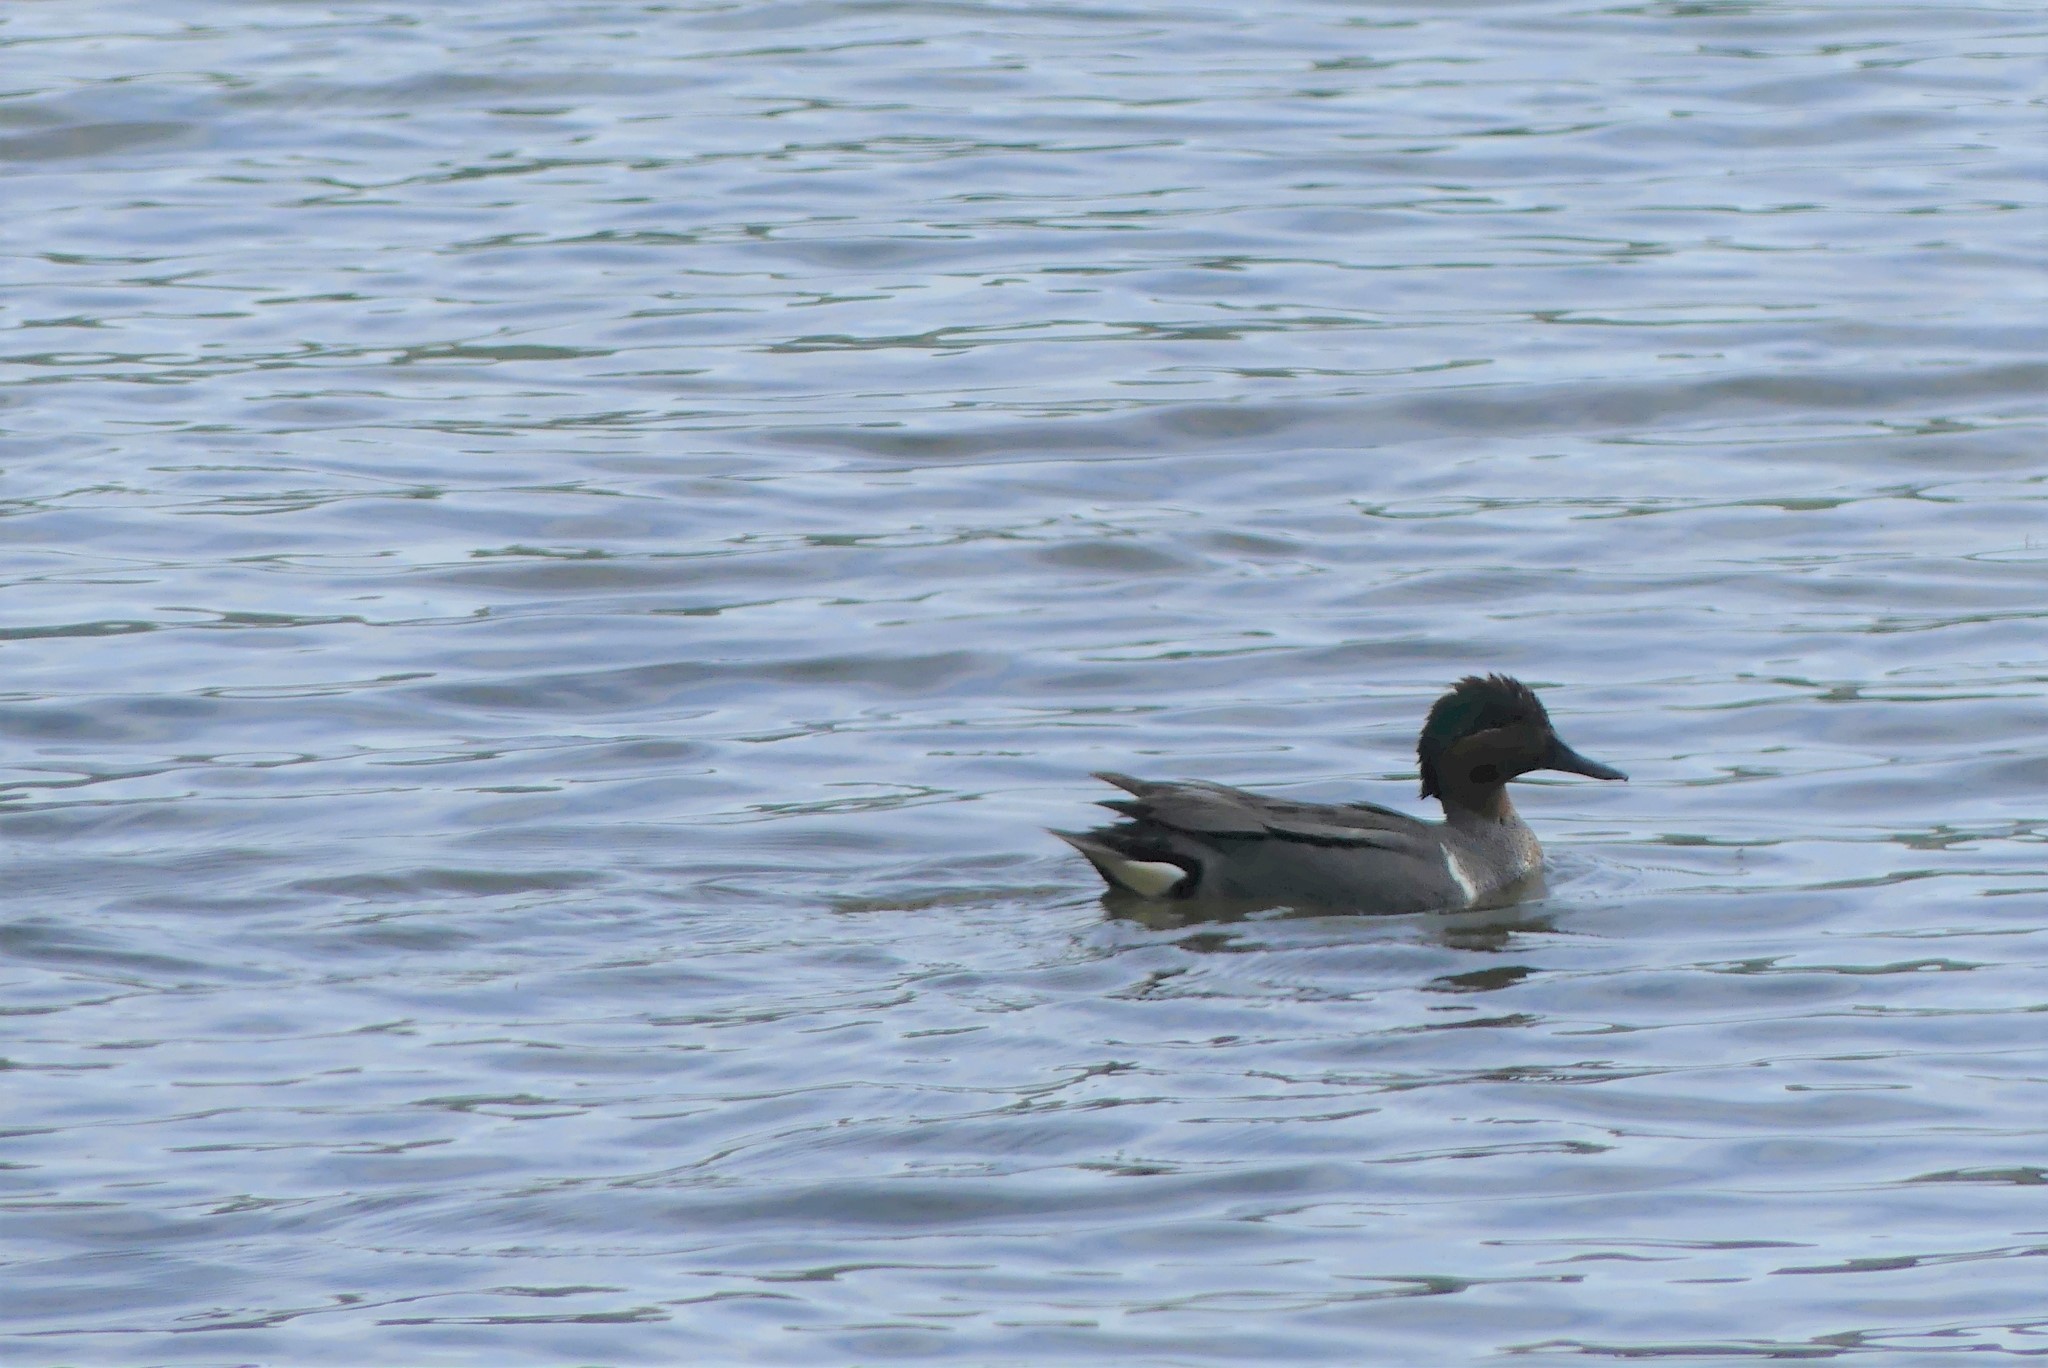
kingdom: Animalia
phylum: Chordata
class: Aves
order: Anseriformes
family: Anatidae
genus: Anas
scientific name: Anas carolinensis
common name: Green-winged teal
